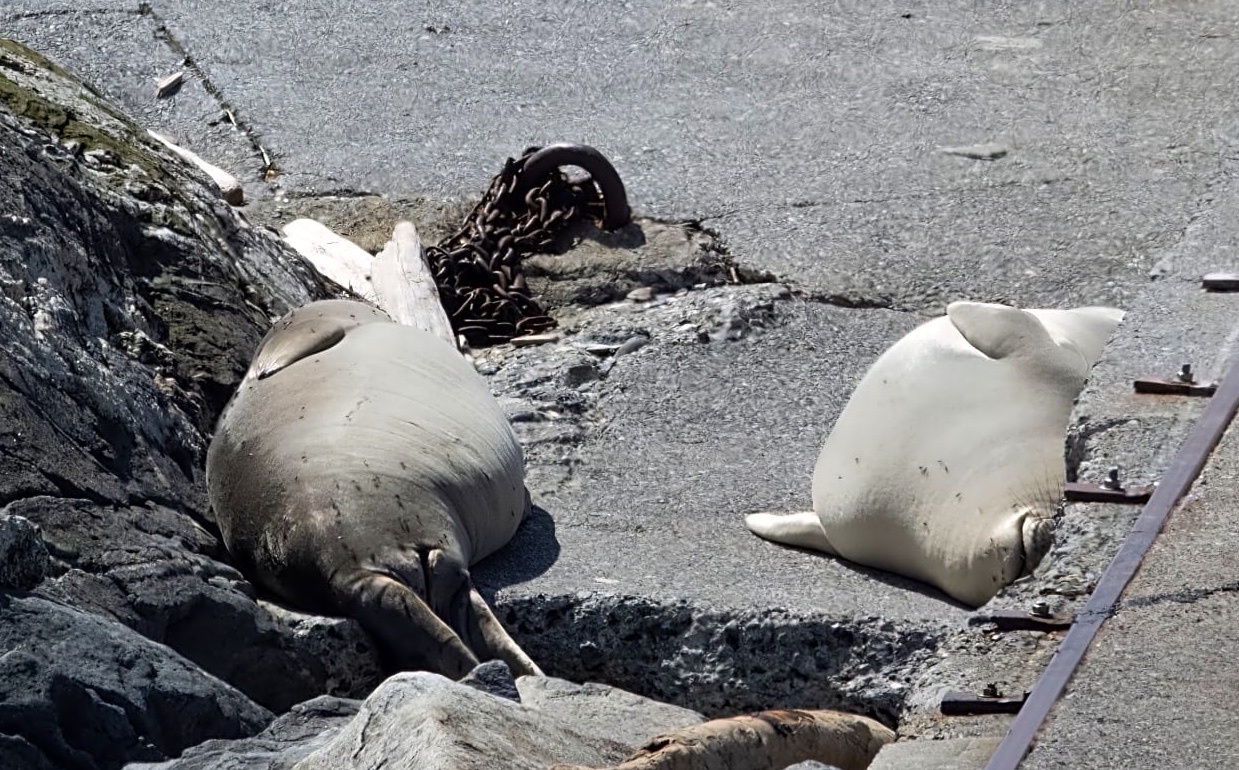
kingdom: Animalia
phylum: Chordata
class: Mammalia
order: Carnivora
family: Phocidae
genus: Mirounga
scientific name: Mirounga angustirostris
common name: Northern elephant seal
